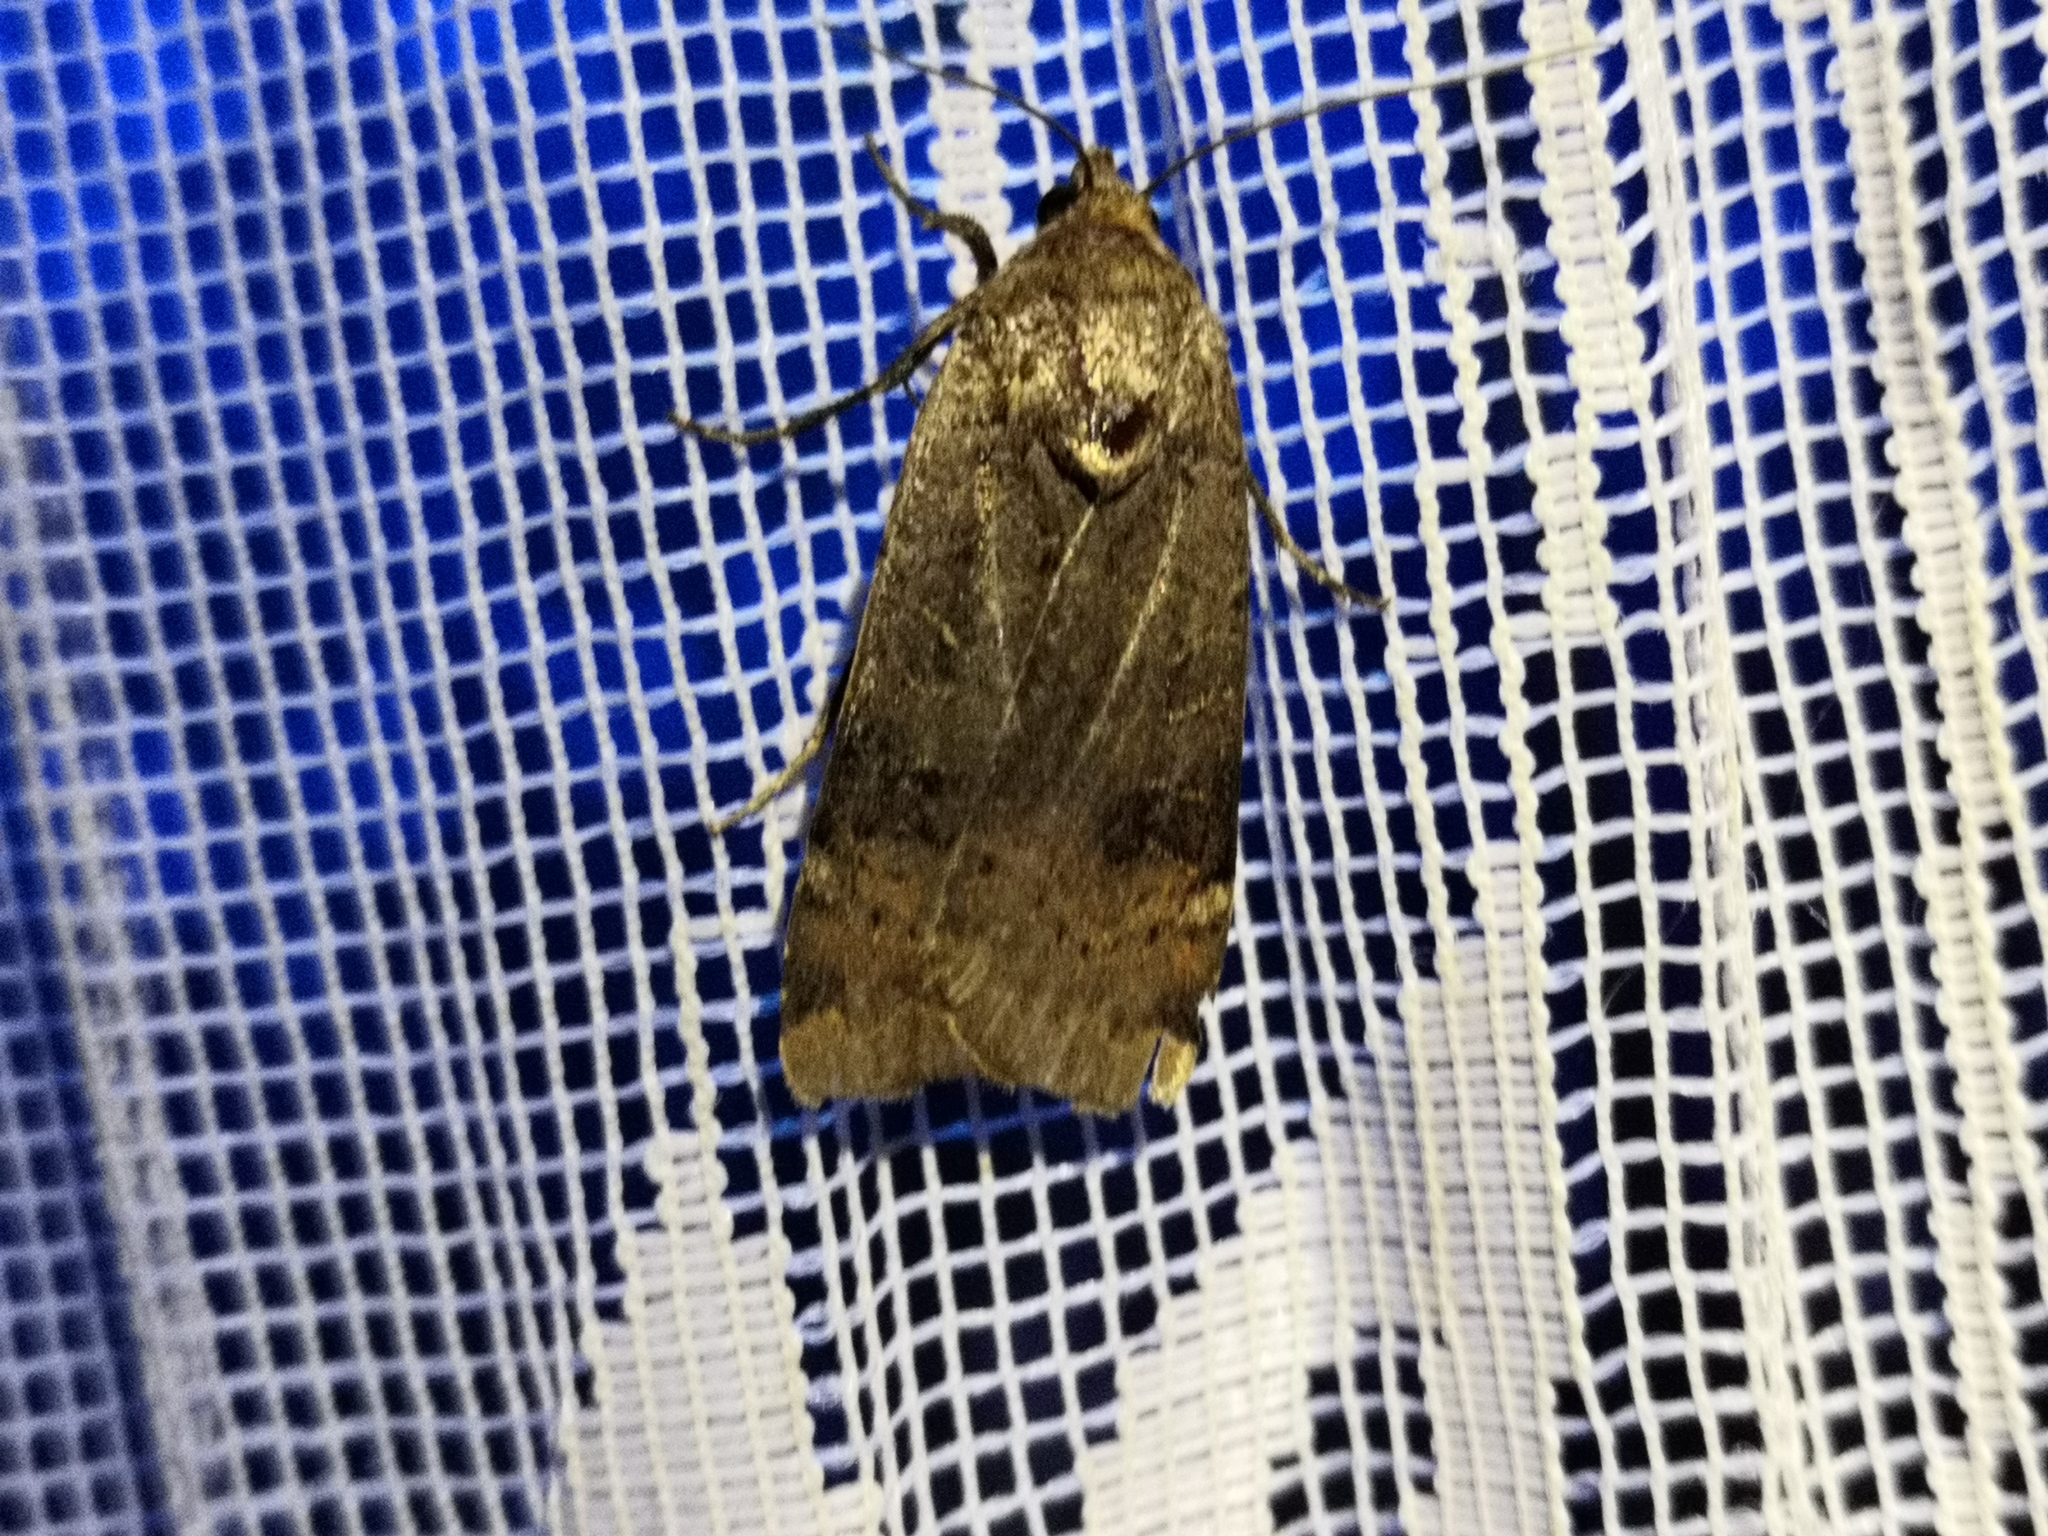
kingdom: Animalia
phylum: Arthropoda
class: Insecta
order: Lepidoptera
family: Noctuidae
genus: Noctua
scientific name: Noctua interposita
